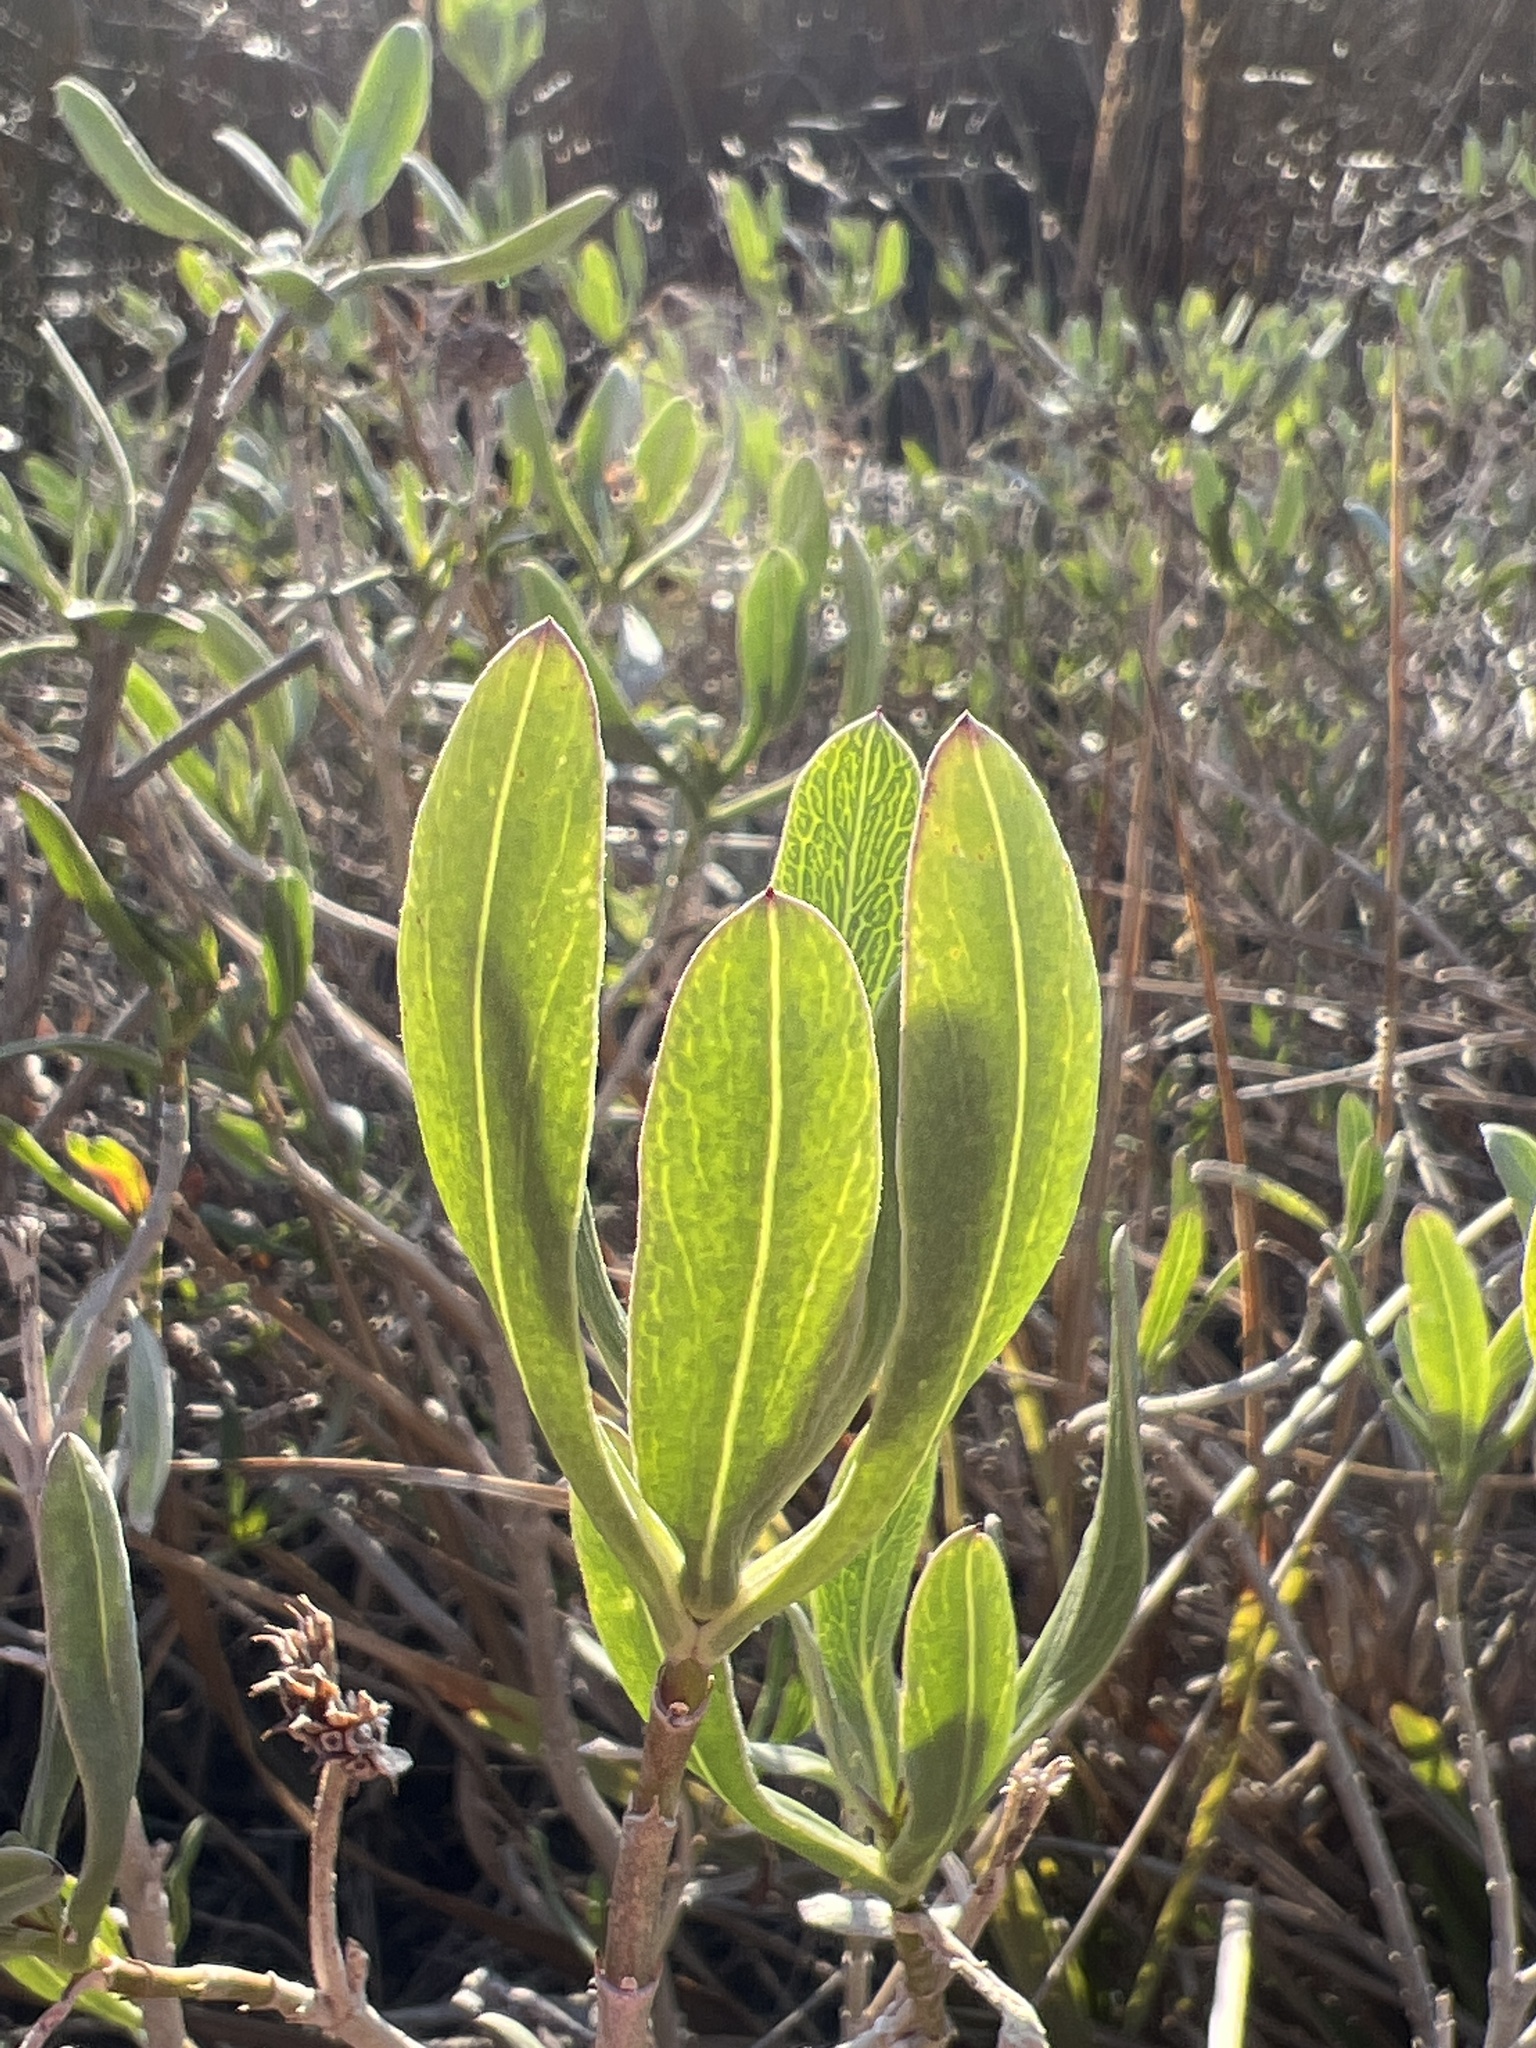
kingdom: Plantae
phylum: Tracheophyta
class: Magnoliopsida
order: Asterales
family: Asteraceae
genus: Borrichia
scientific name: Borrichia frutescens
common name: Sea oxeye
